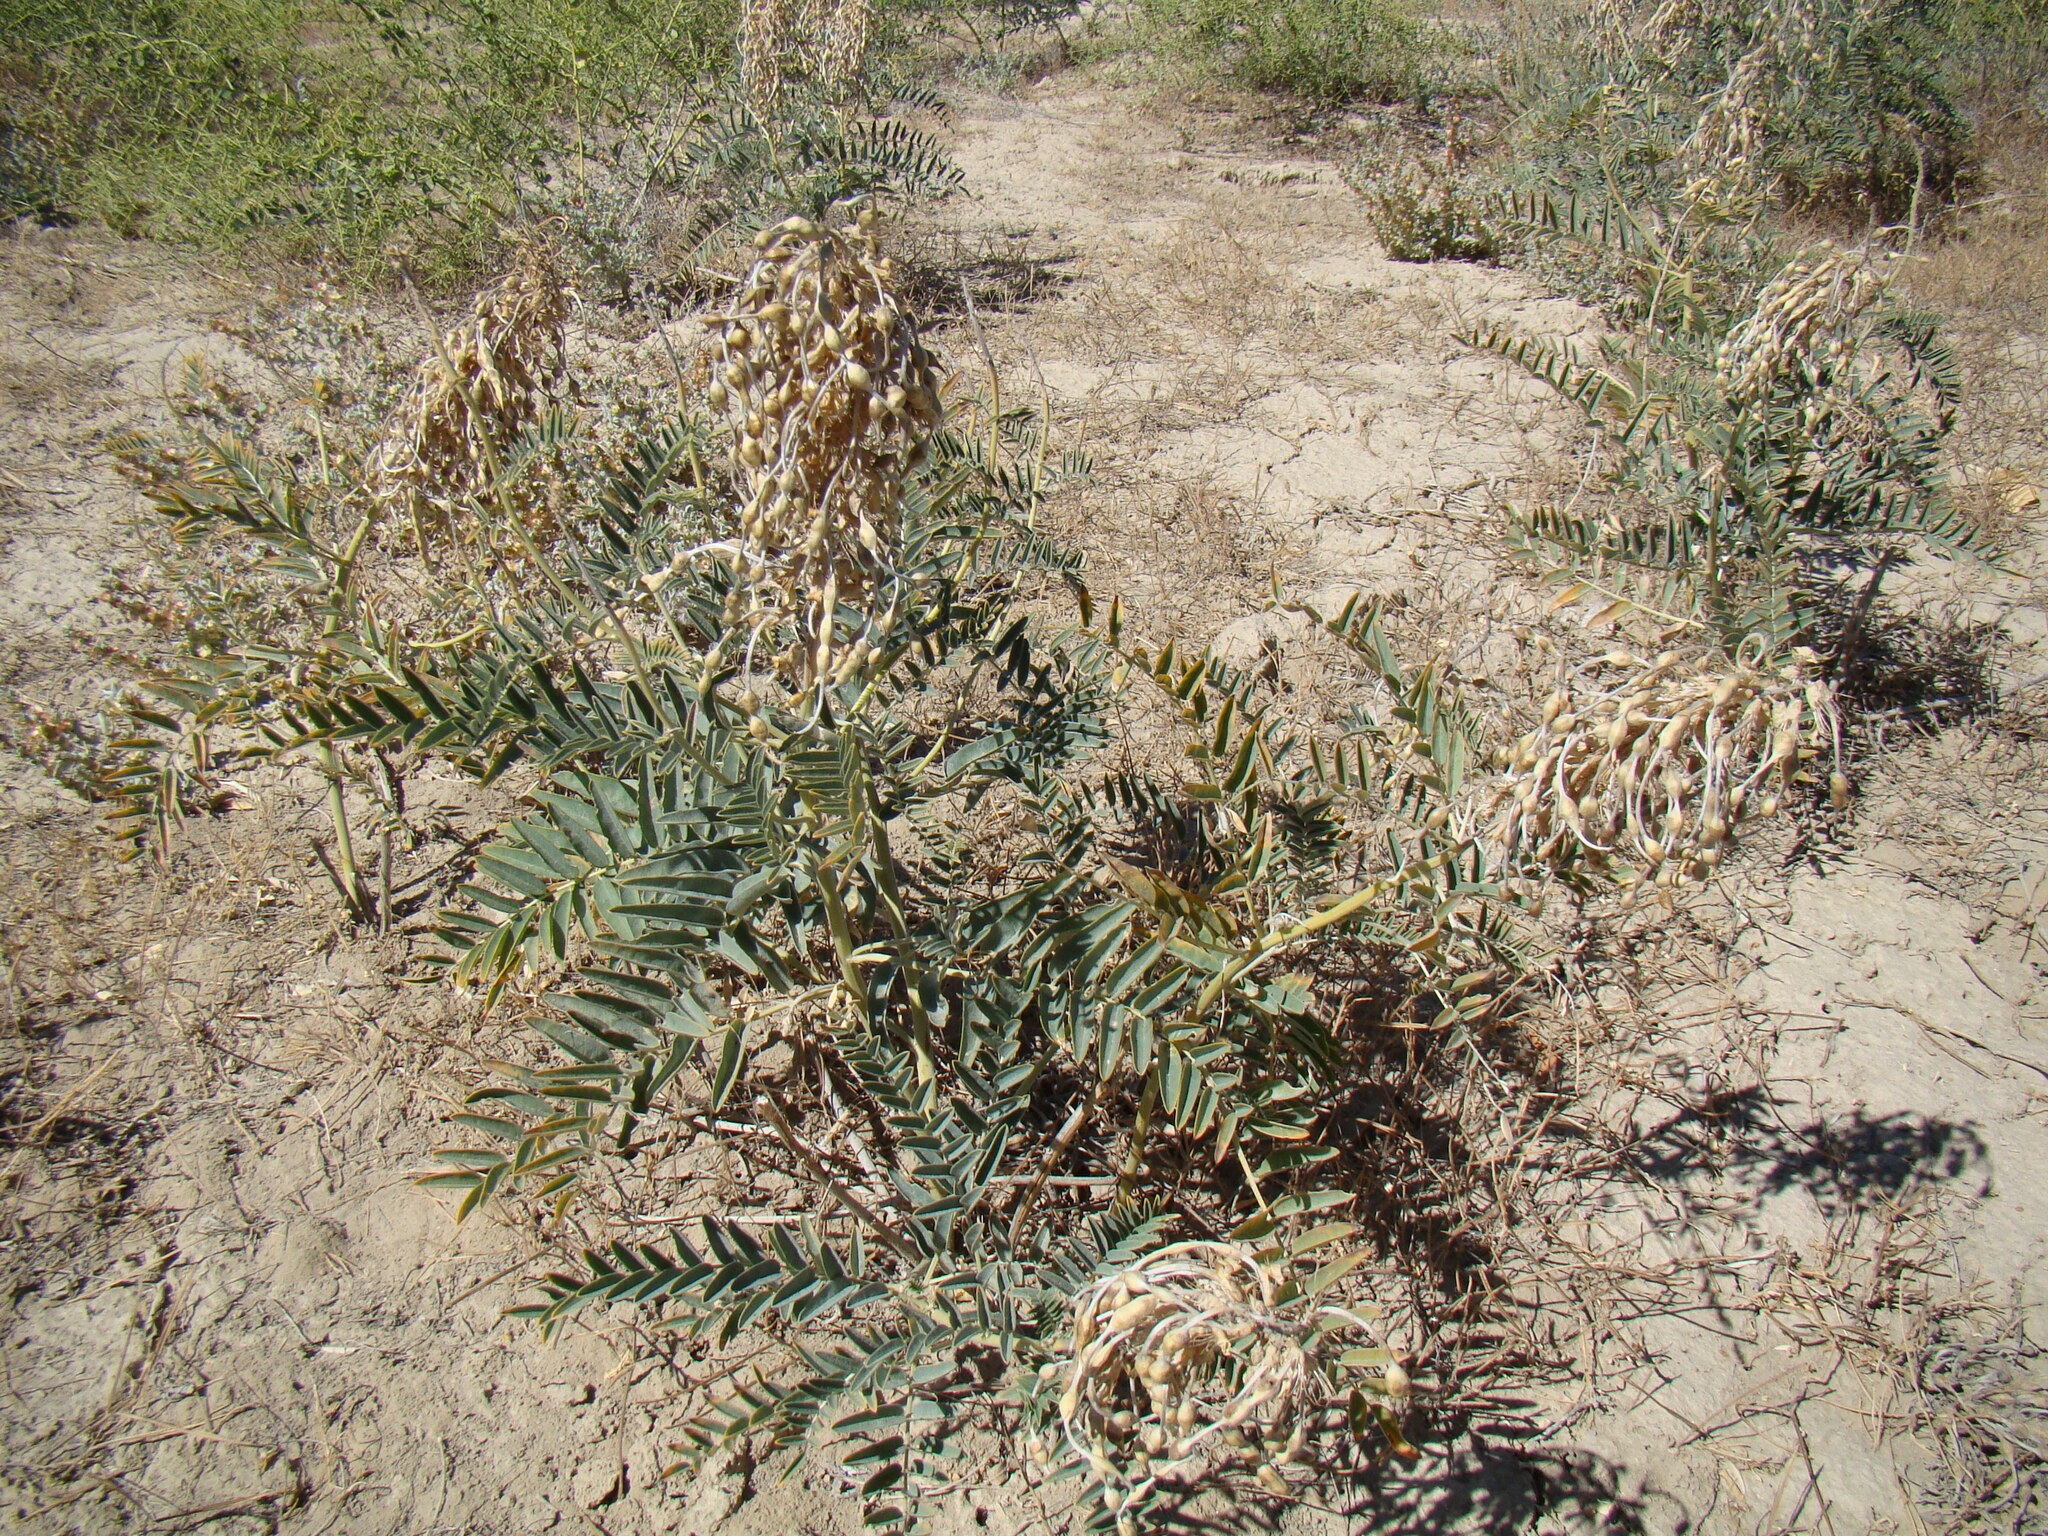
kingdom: Plantae
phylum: Tracheophyta
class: Magnoliopsida
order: Fabales
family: Fabaceae
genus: Sophora
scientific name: Sophora alopecuroides
